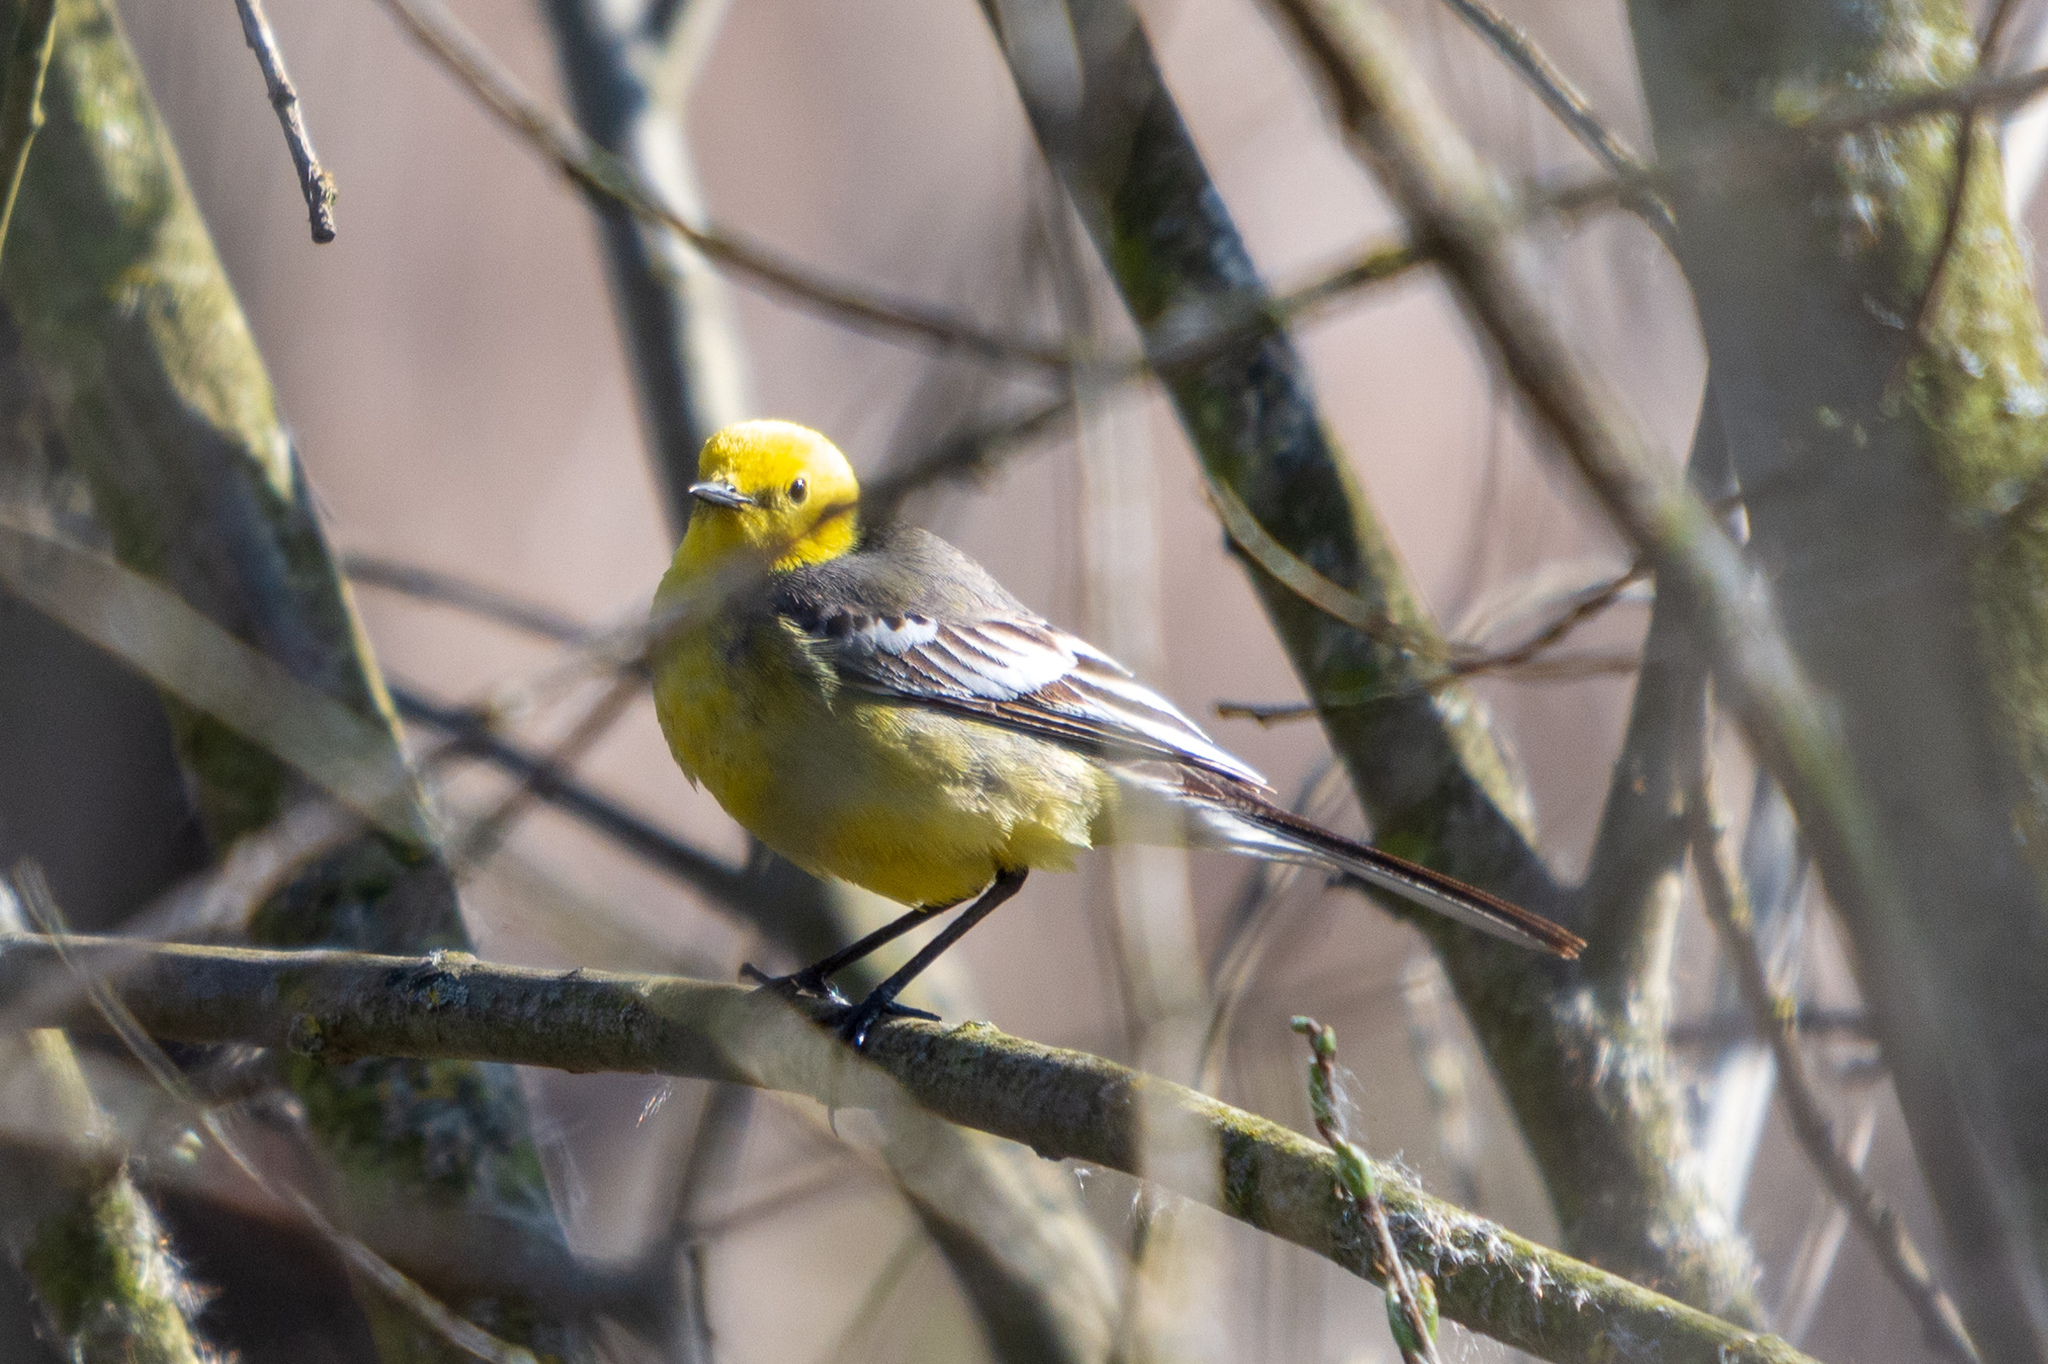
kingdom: Animalia
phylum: Chordata
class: Aves
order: Passeriformes
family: Motacillidae
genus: Motacilla
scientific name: Motacilla citreola
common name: Citrine wagtail
